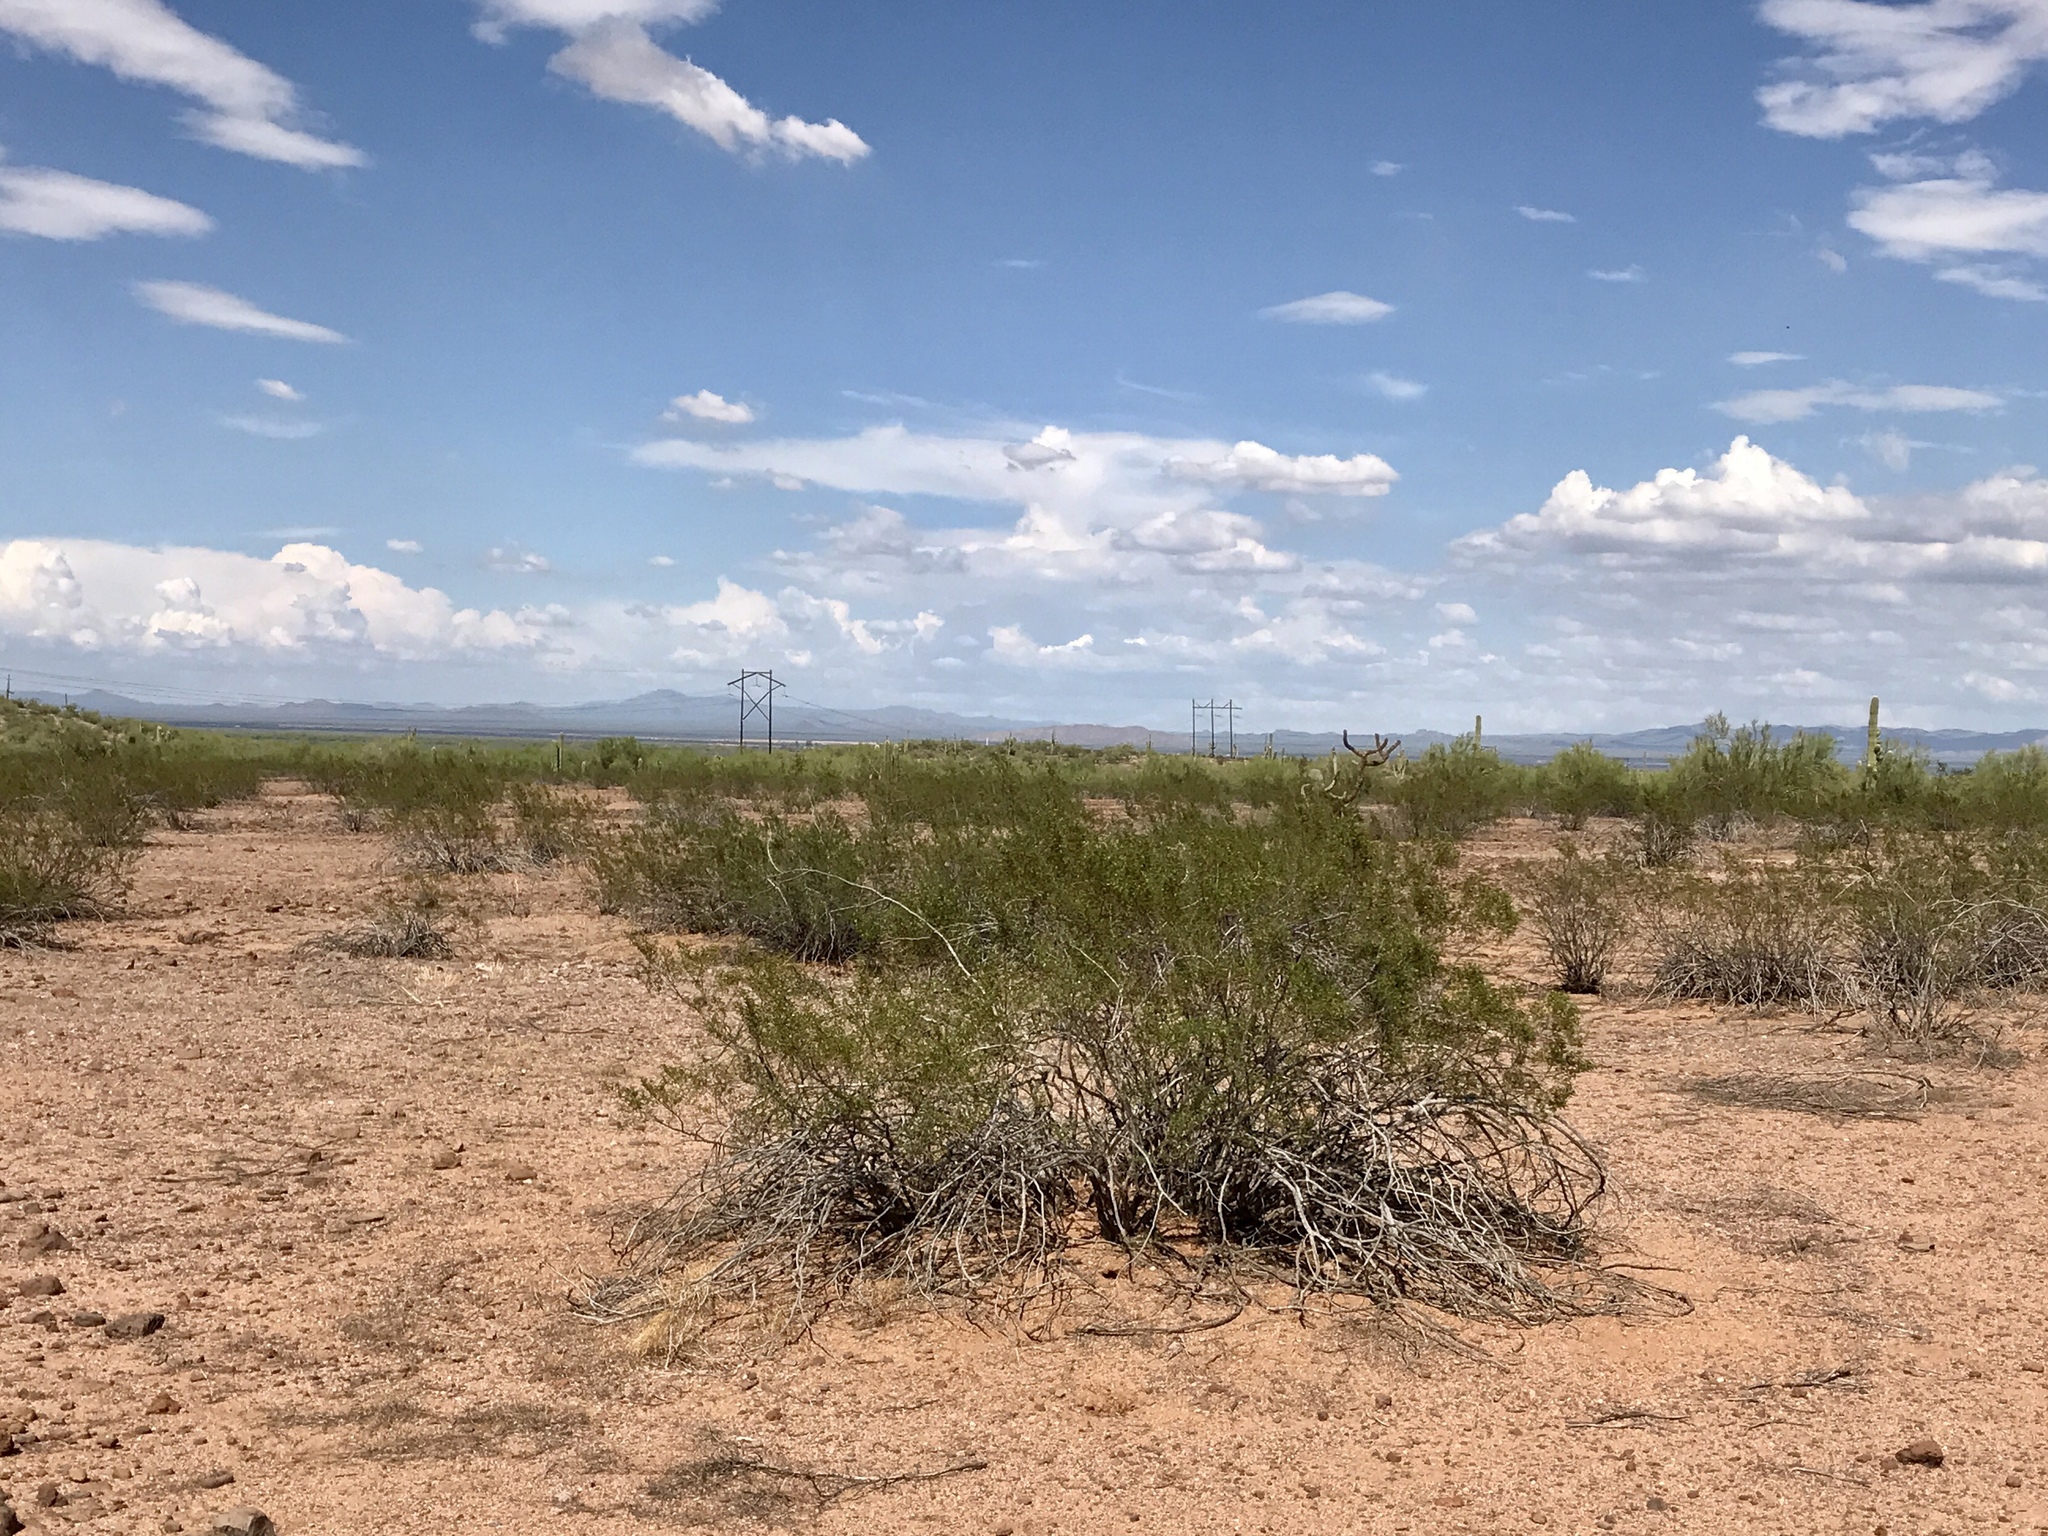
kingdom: Plantae
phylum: Tracheophyta
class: Magnoliopsida
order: Zygophyllales
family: Zygophyllaceae
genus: Larrea
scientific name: Larrea tridentata
